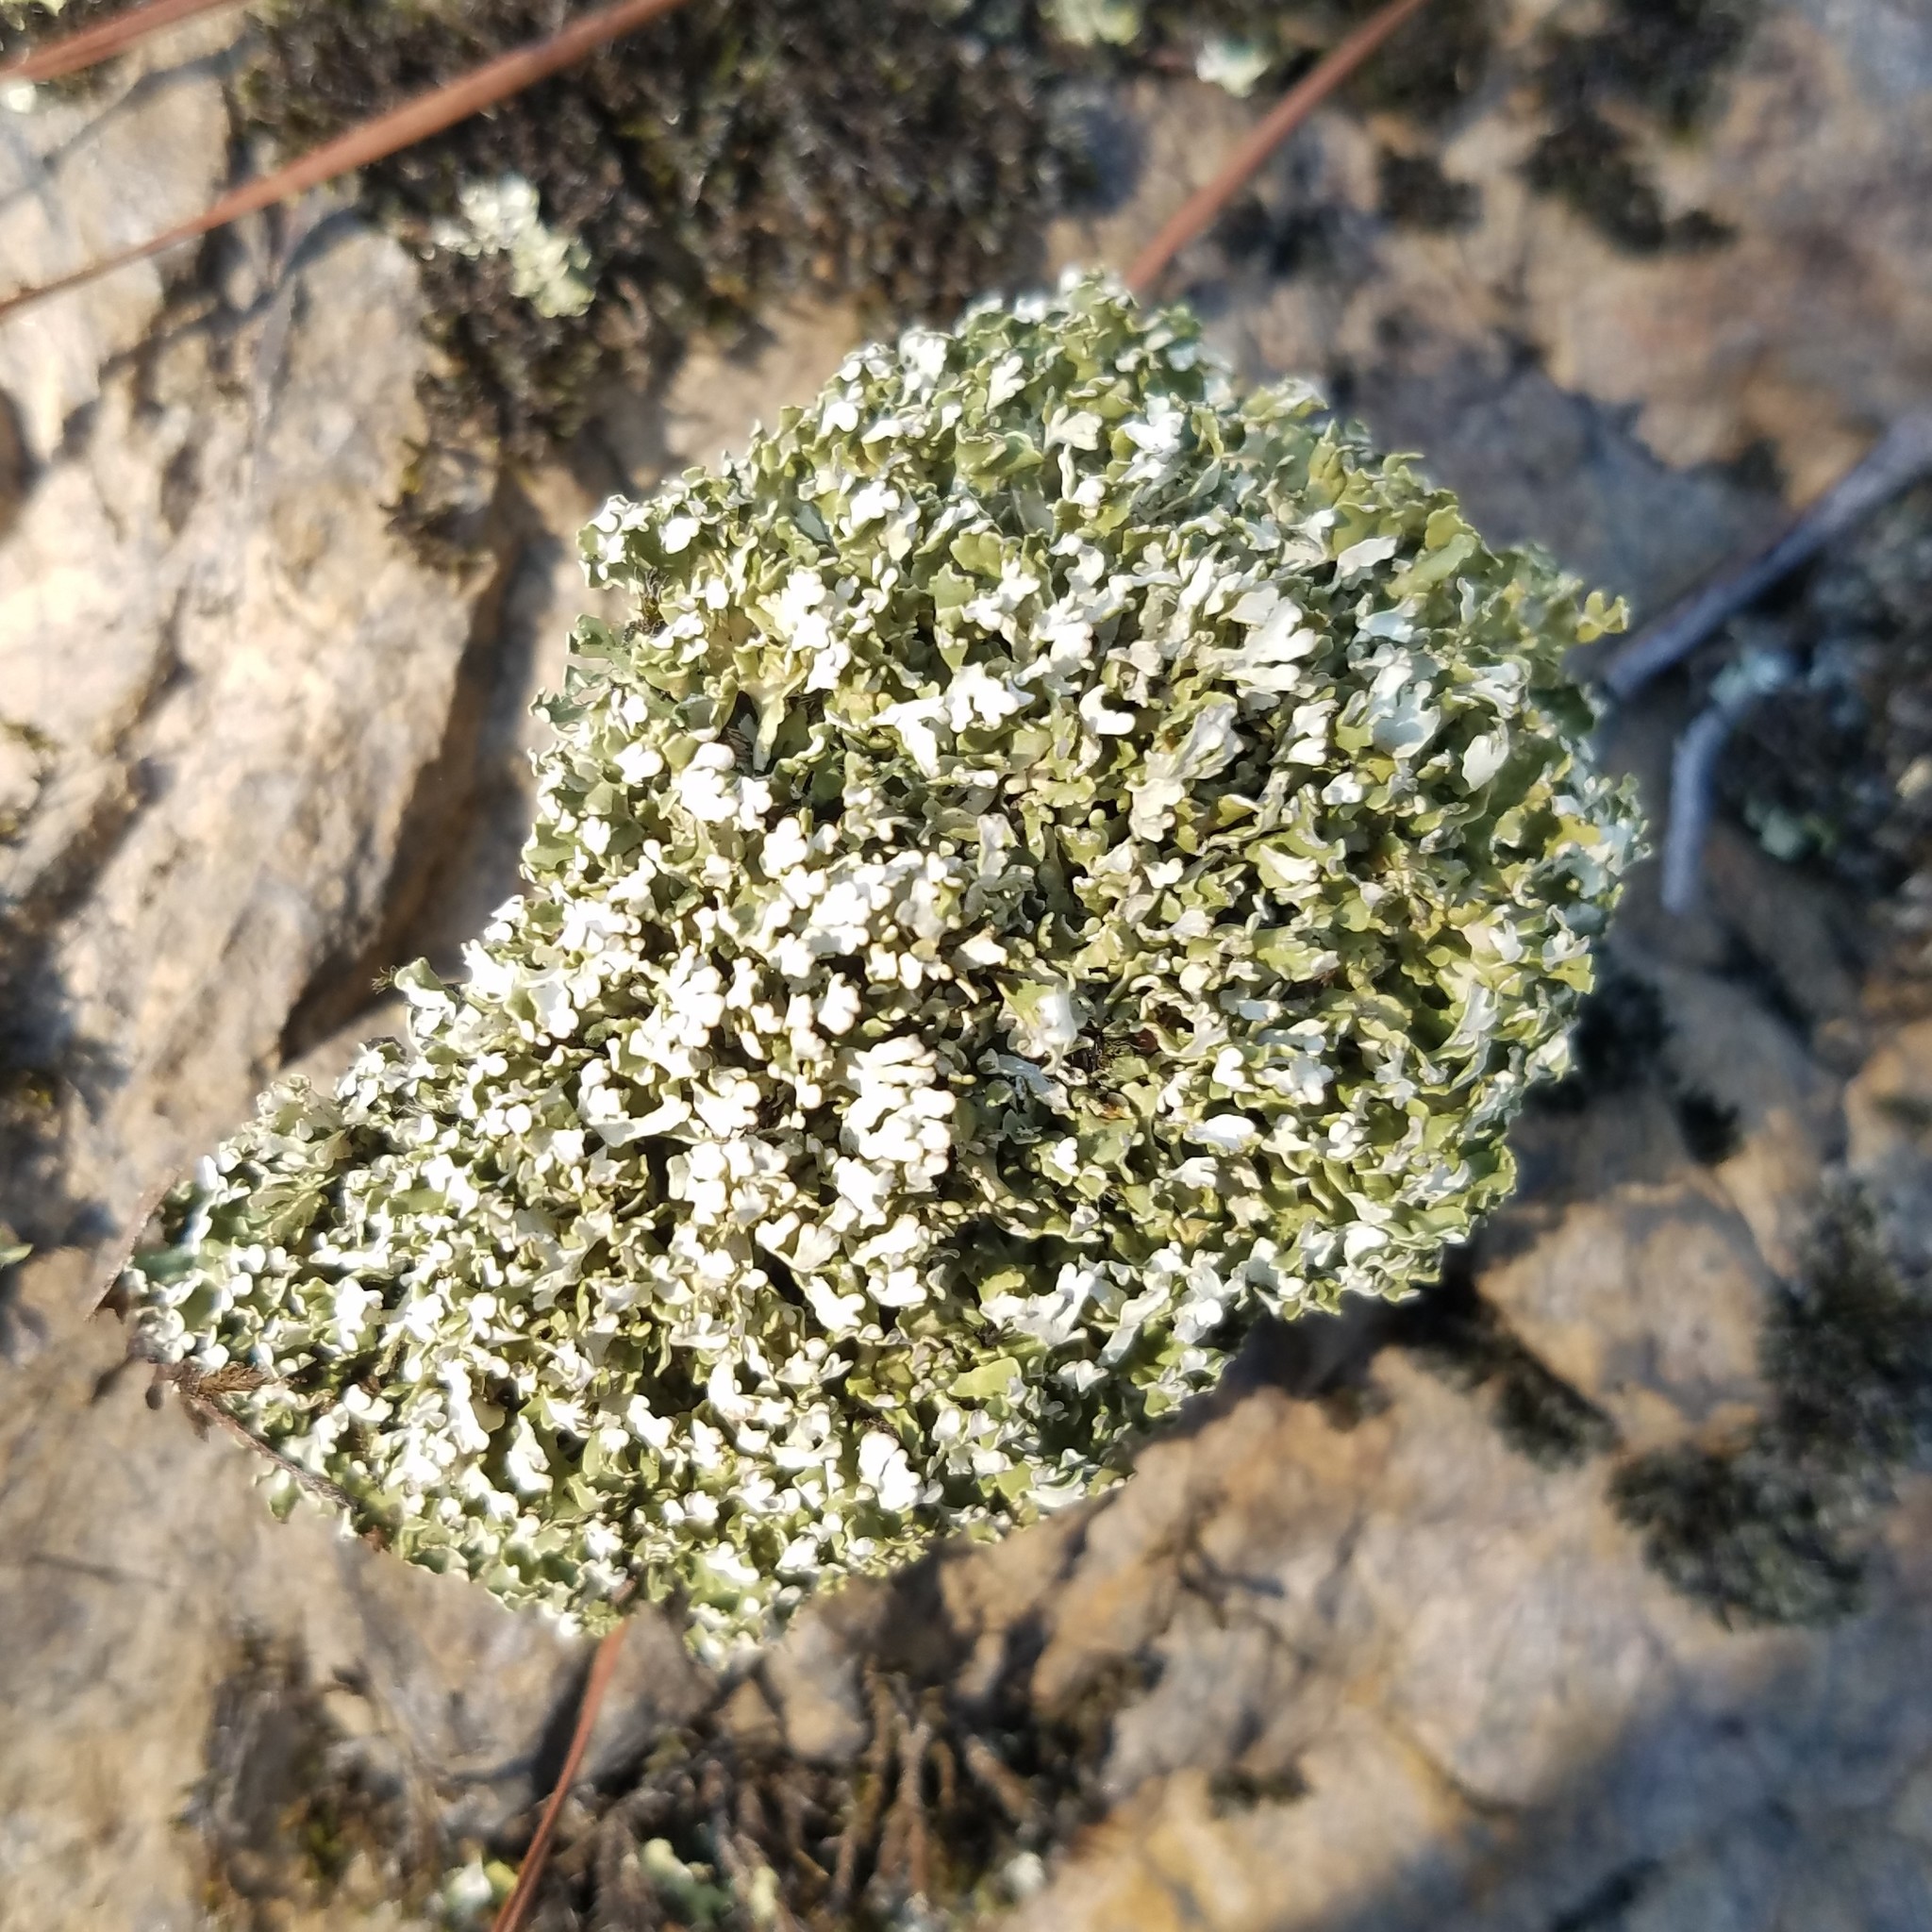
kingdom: Fungi
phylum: Ascomycota
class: Lecanoromycetes
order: Lecanorales
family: Cladoniaceae
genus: Cladonia
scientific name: Cladonia apodocarpa
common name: Stalkless cladonia
